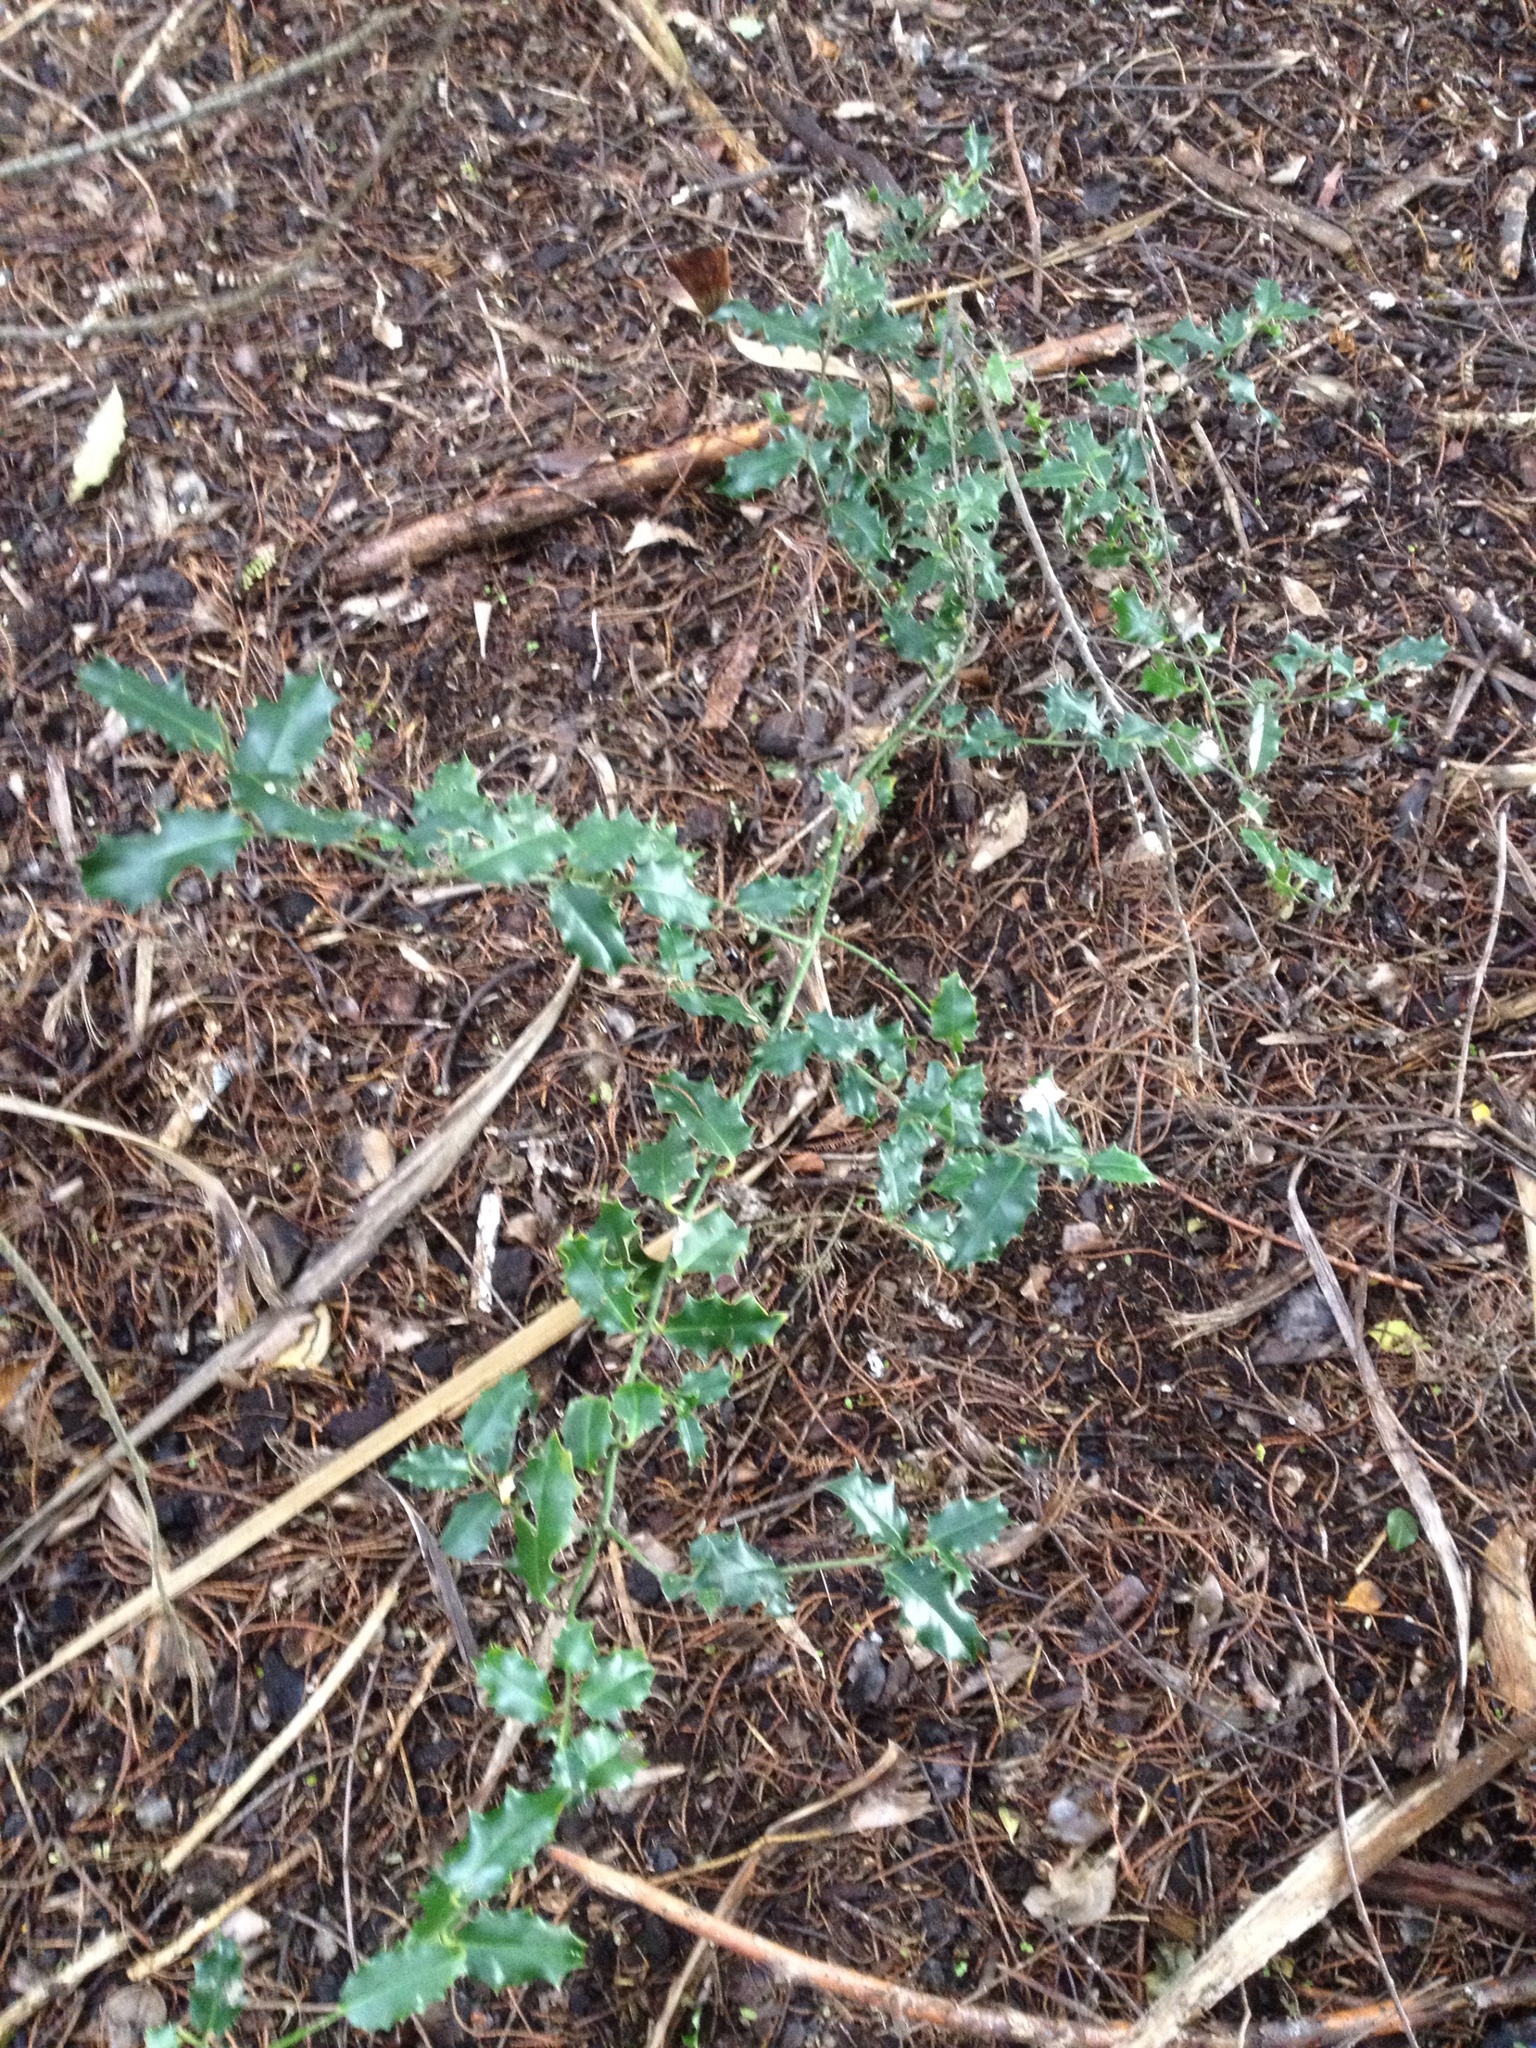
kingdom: Plantae
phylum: Tracheophyta
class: Magnoliopsida
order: Aquifoliales
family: Aquifoliaceae
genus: Ilex
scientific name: Ilex aquifolium
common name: English holly
